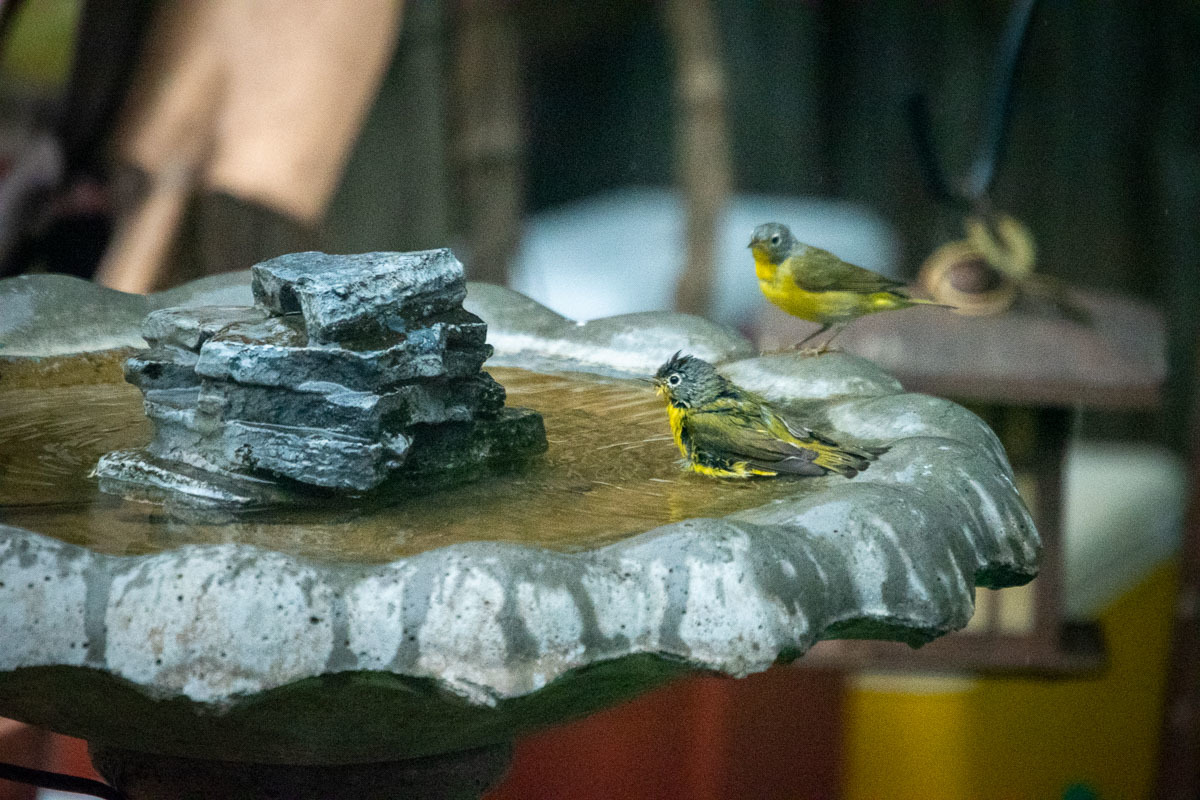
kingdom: Animalia
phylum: Chordata
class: Aves
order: Passeriformes
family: Parulidae
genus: Leiothlypis
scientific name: Leiothlypis ruficapilla
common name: Nashville warbler
